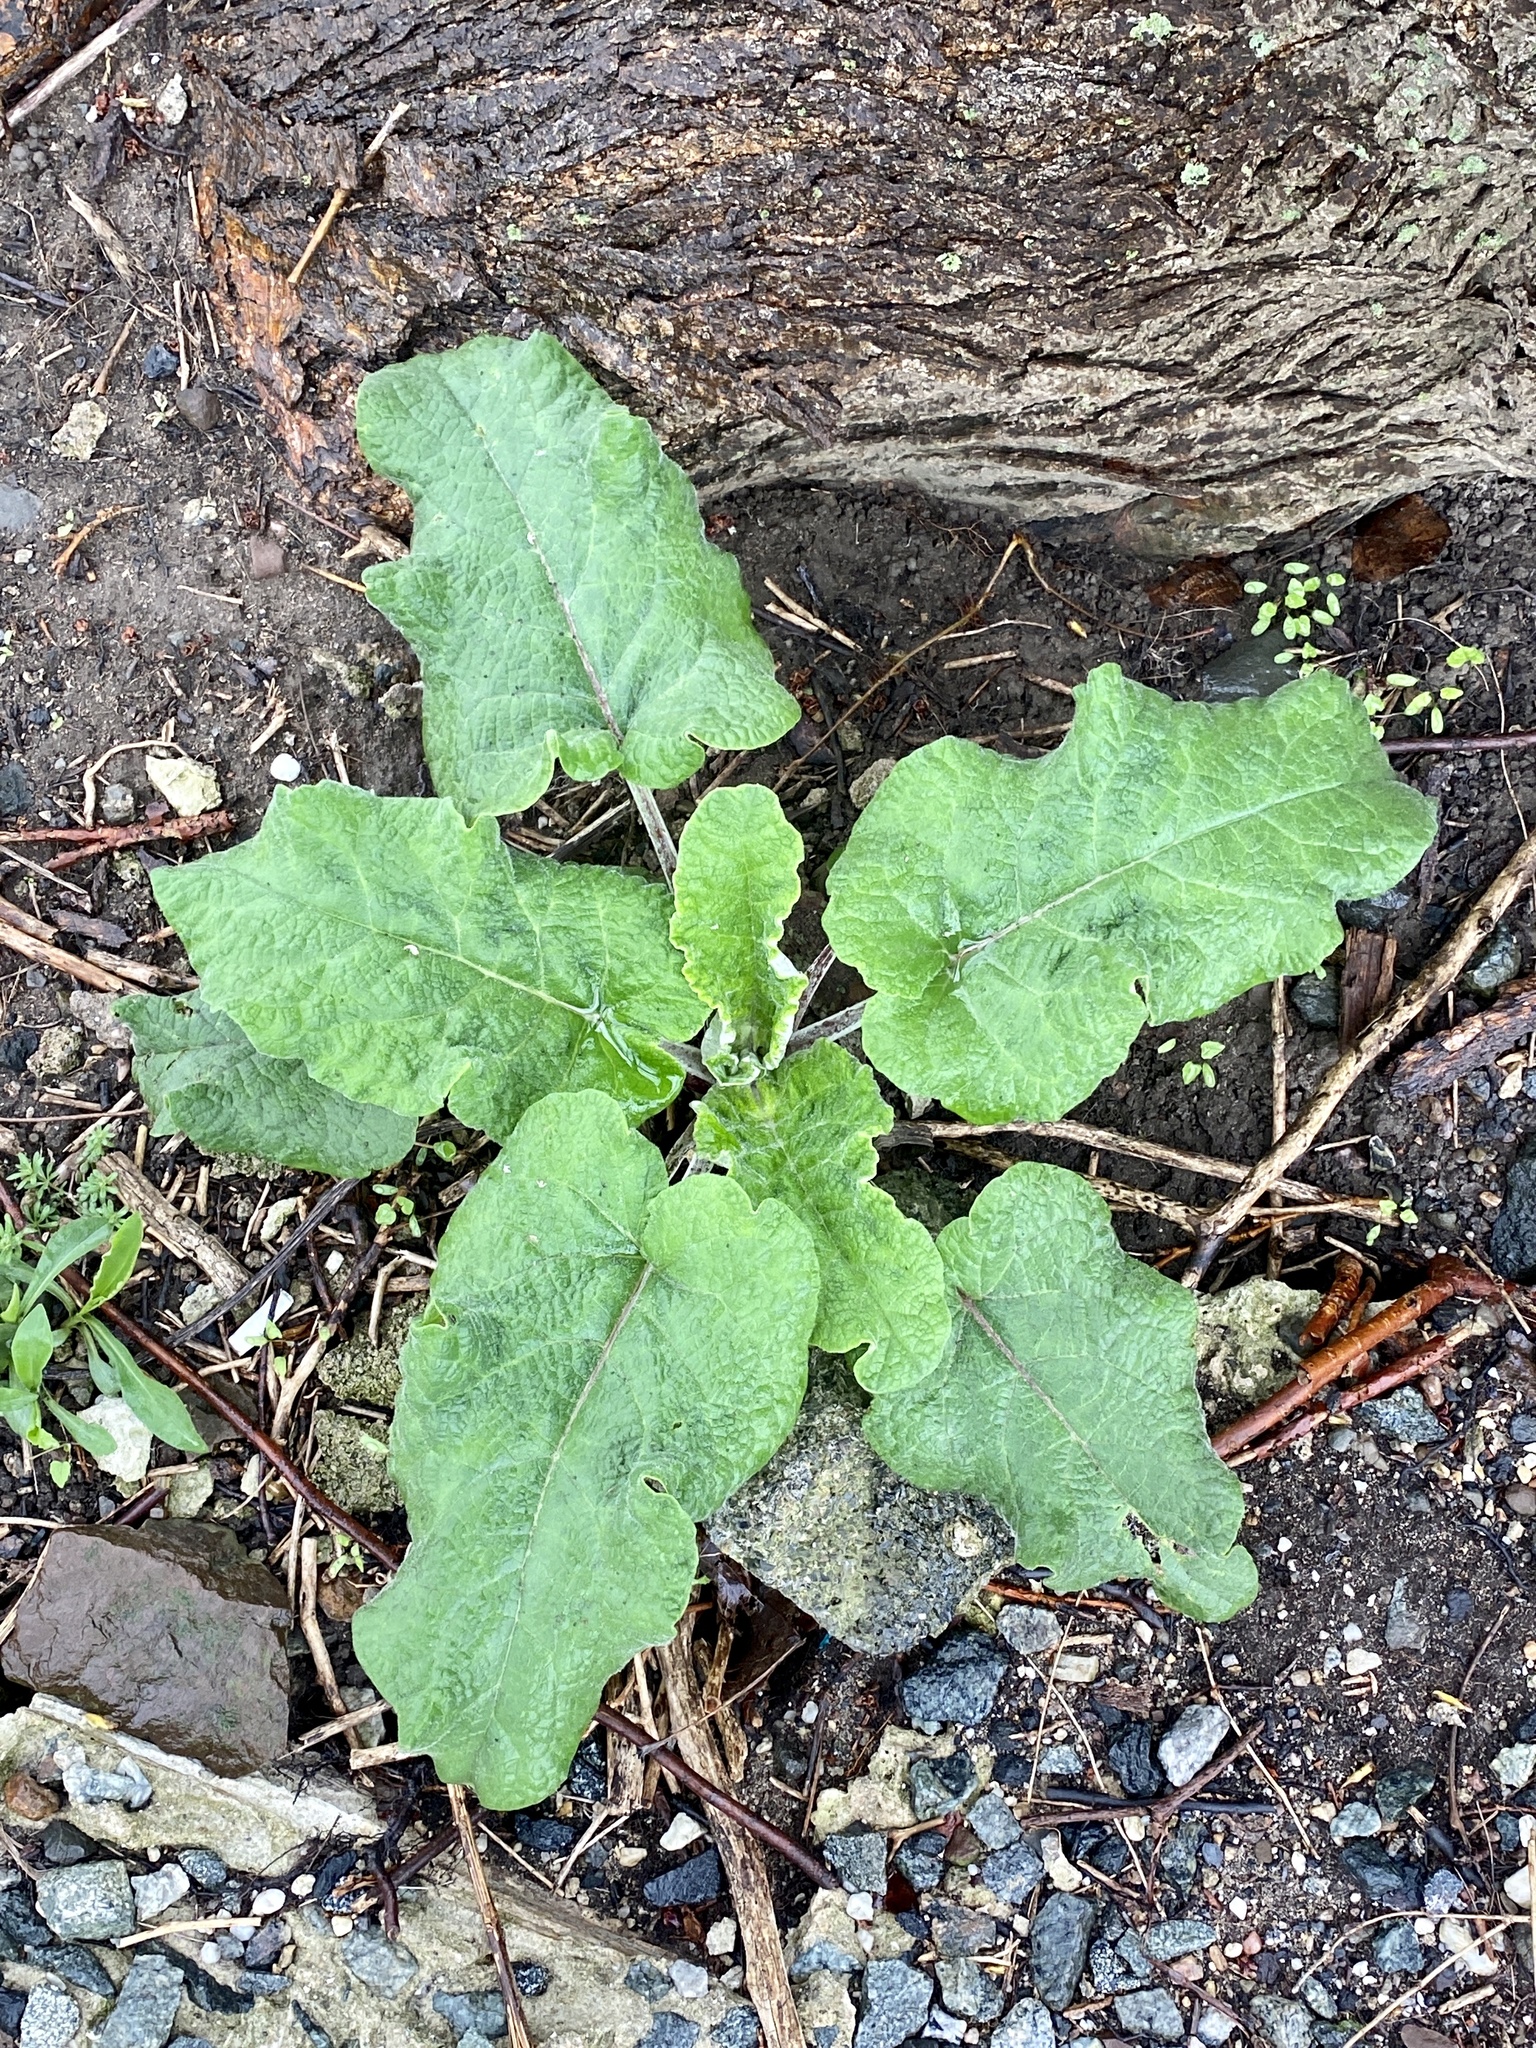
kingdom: Plantae
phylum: Tracheophyta
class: Magnoliopsida
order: Asterales
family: Asteraceae
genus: Arctium
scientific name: Arctium minus
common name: Lesser burdock
